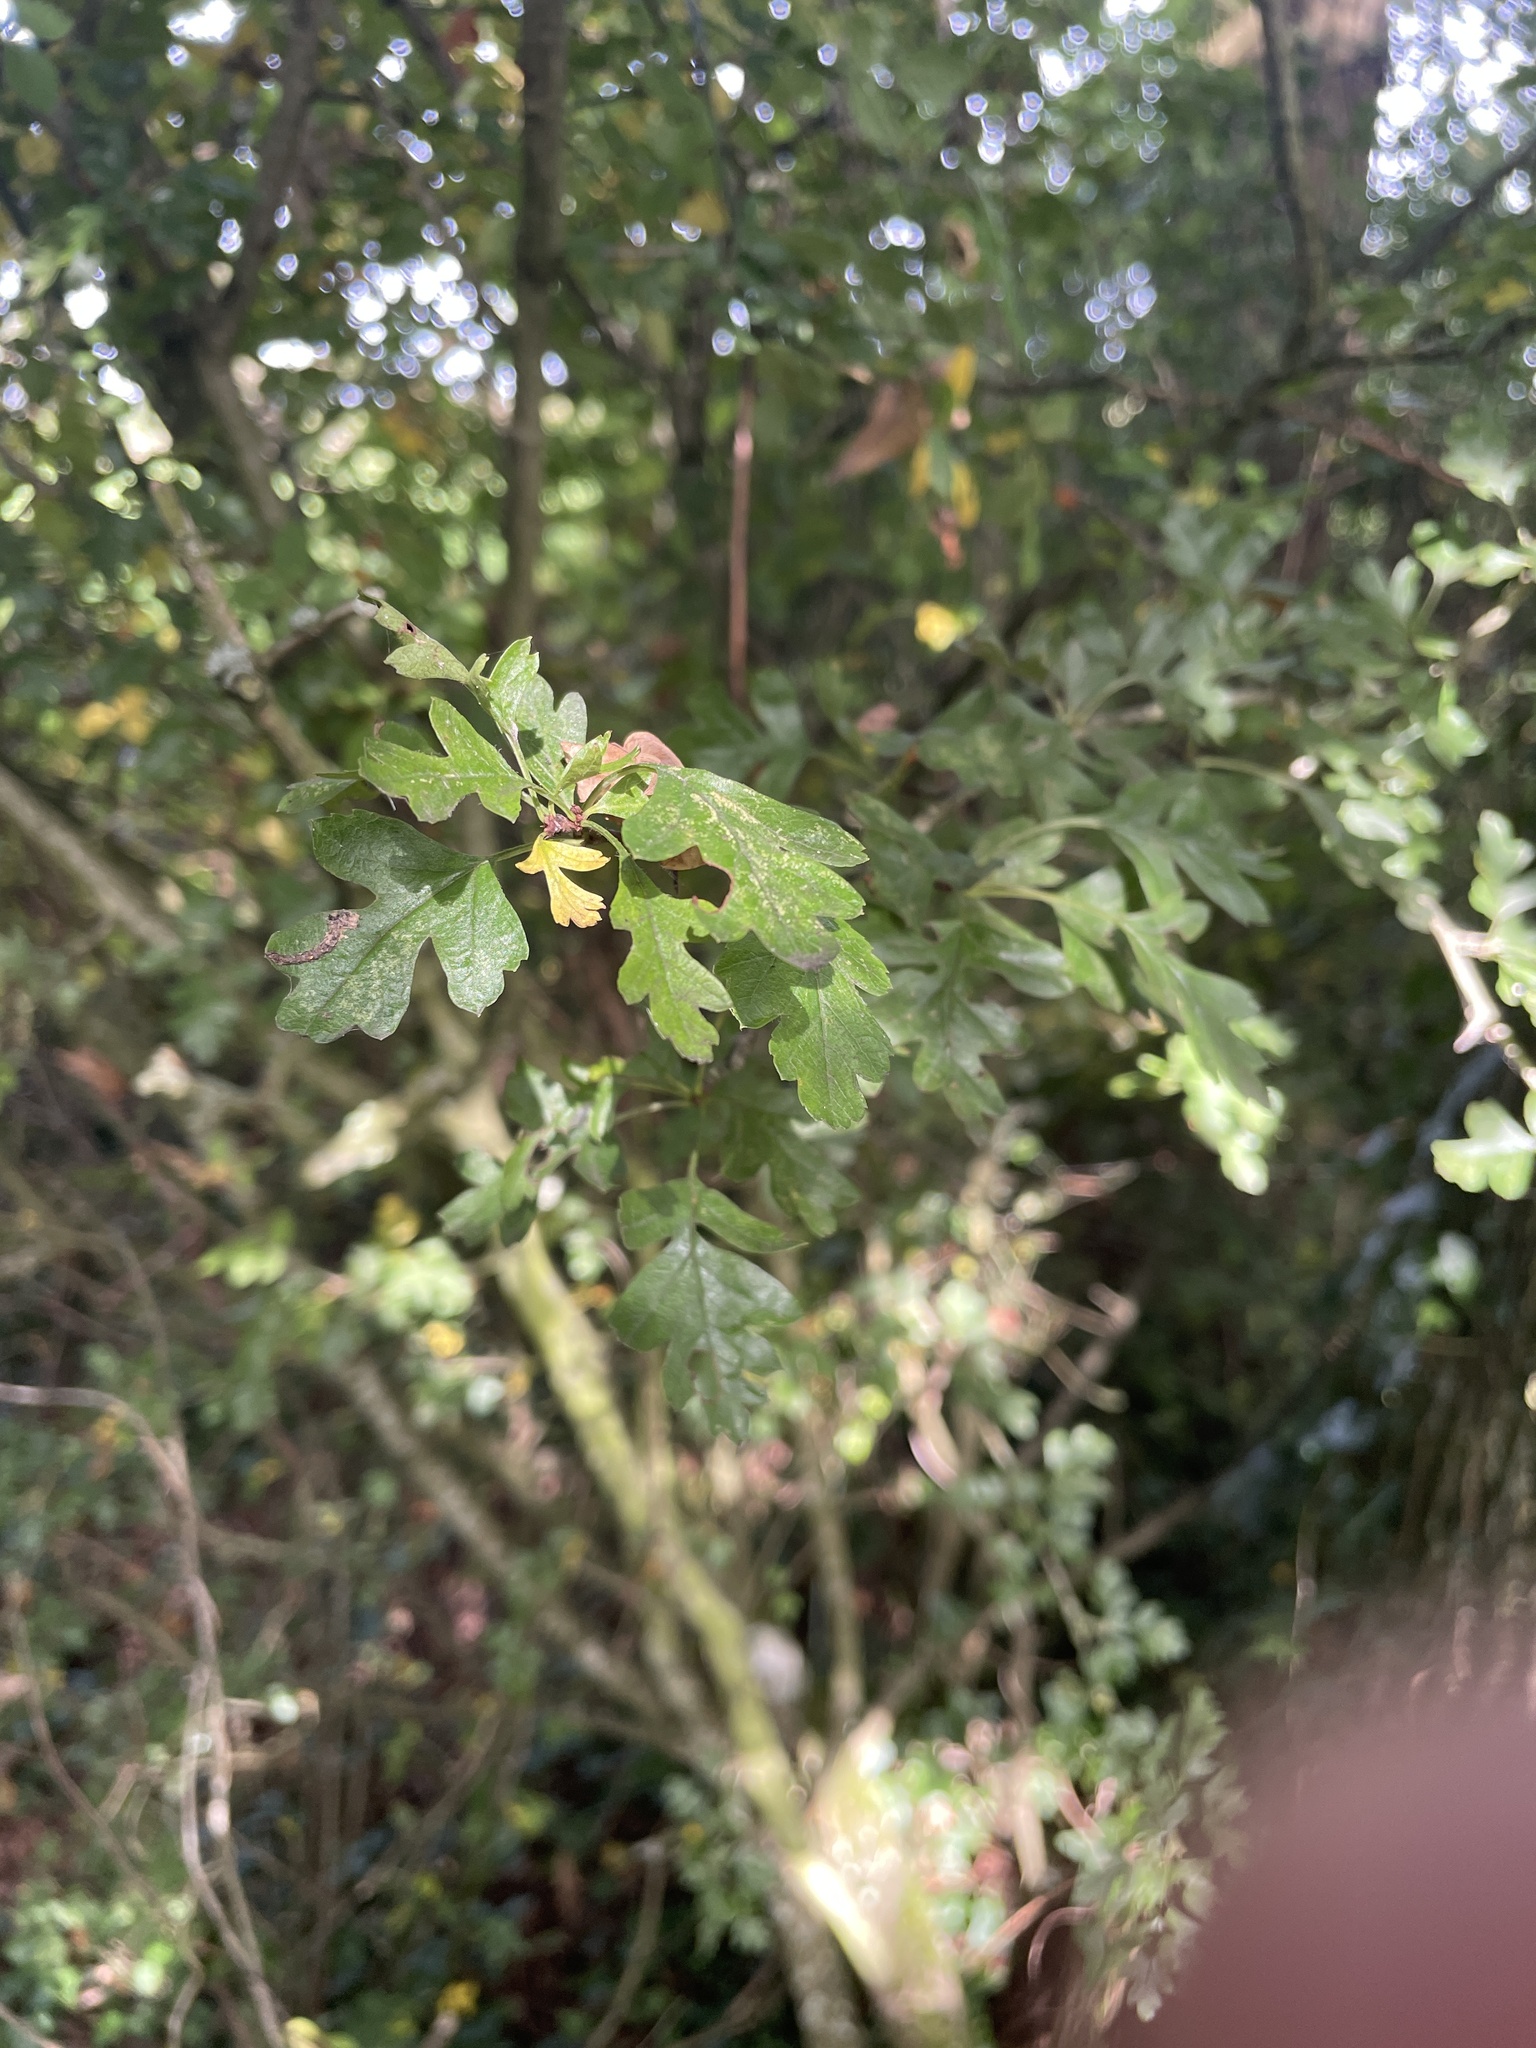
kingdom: Plantae
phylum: Tracheophyta
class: Magnoliopsida
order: Rosales
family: Rosaceae
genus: Crataegus
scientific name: Crataegus monogyna
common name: Hawthorn
